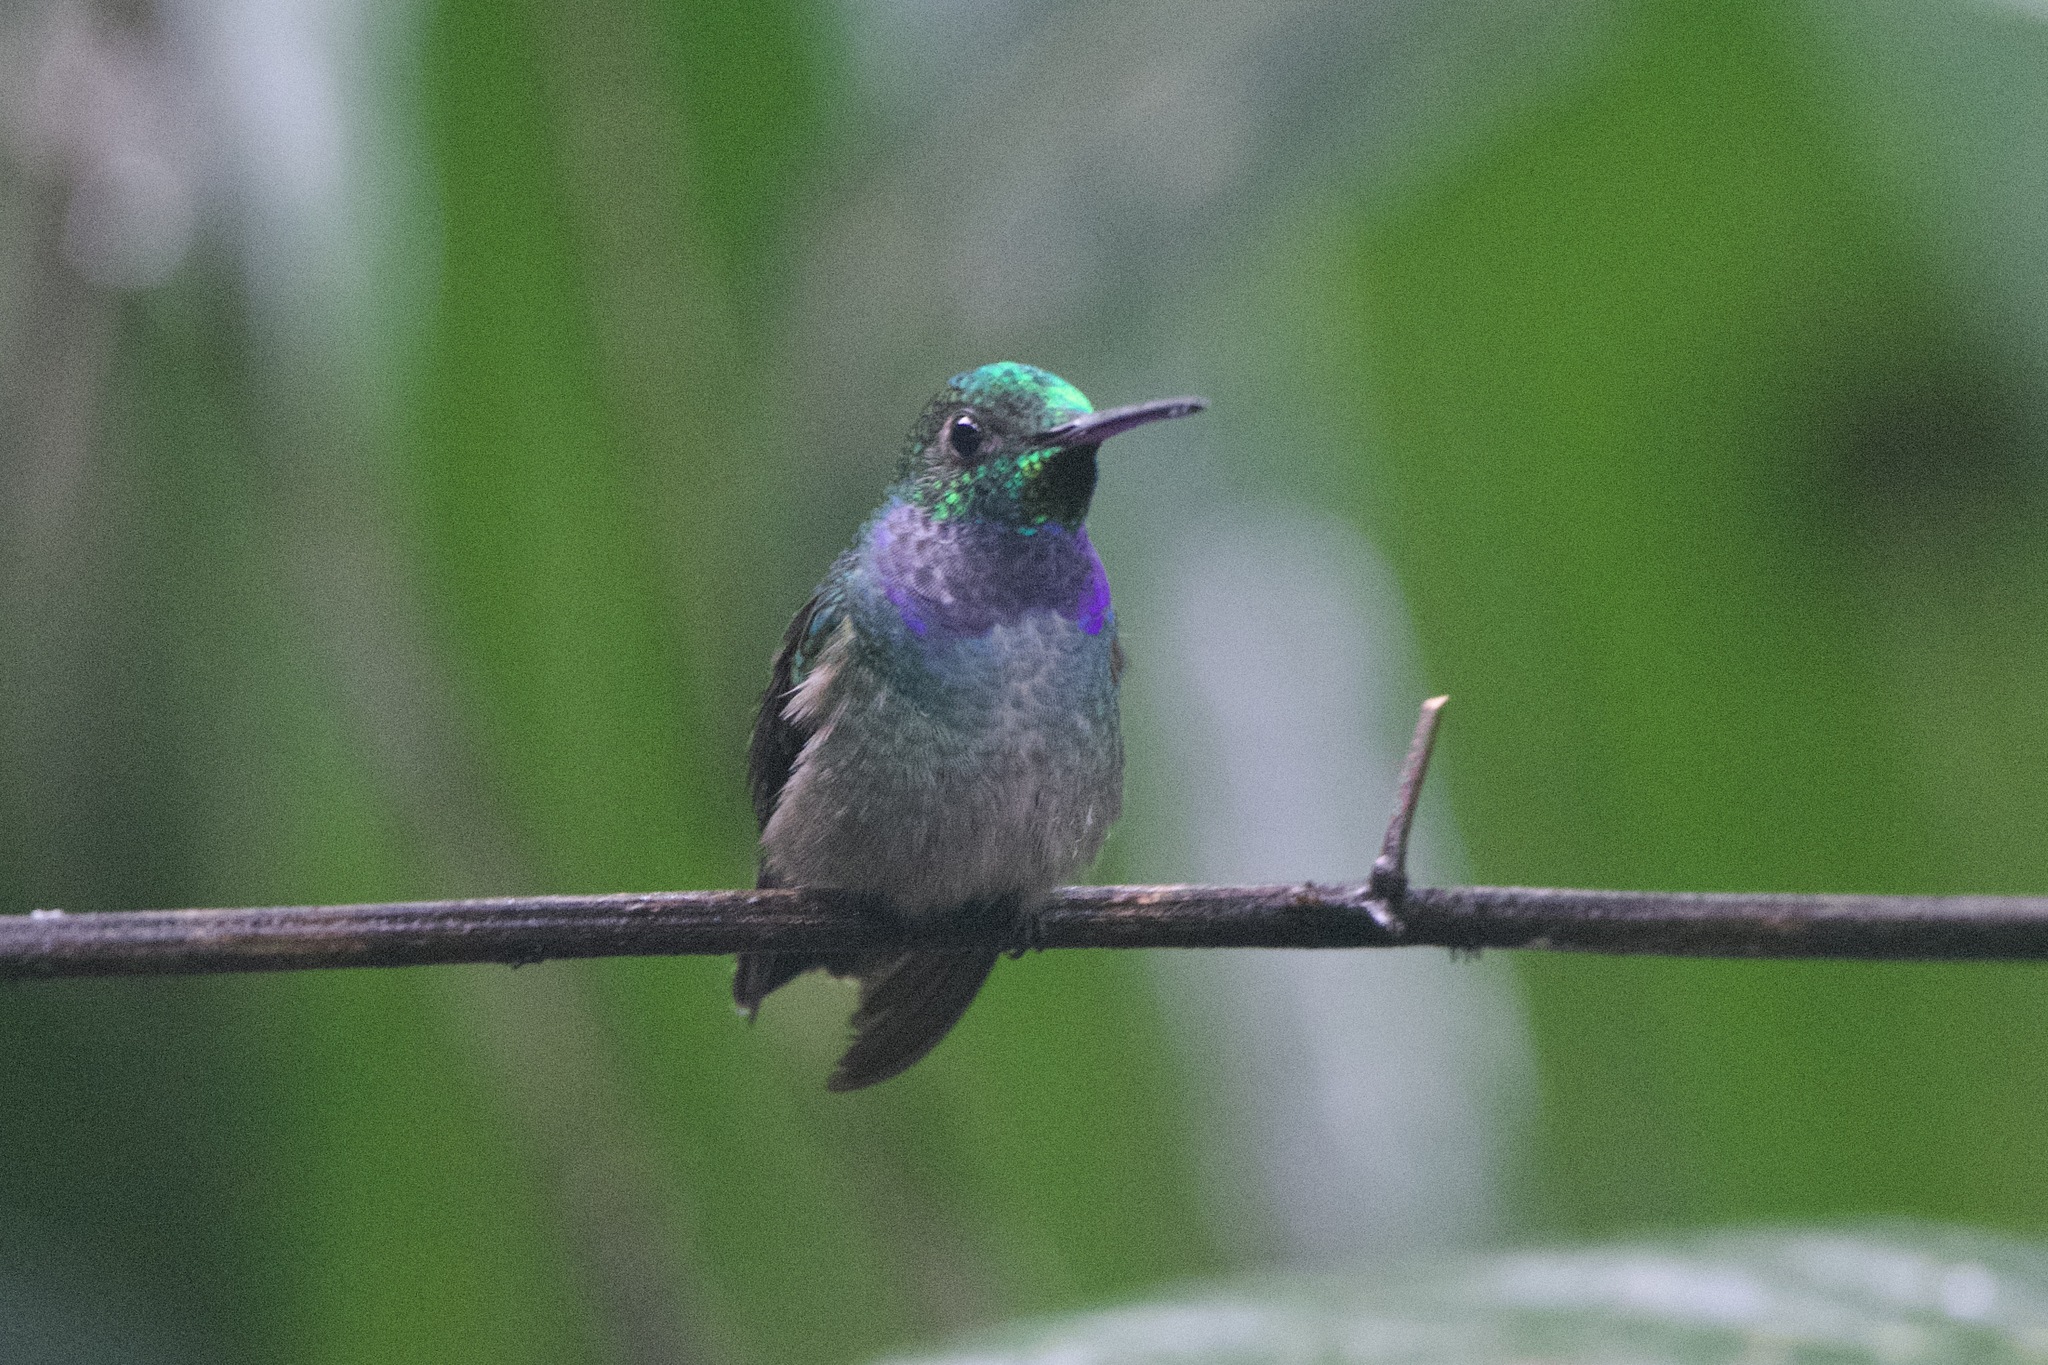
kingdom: Animalia
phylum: Chordata
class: Aves
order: Apodiformes
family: Trochilidae
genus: Polyerata
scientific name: Polyerata amabilis
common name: Blue-chested hummingbird
